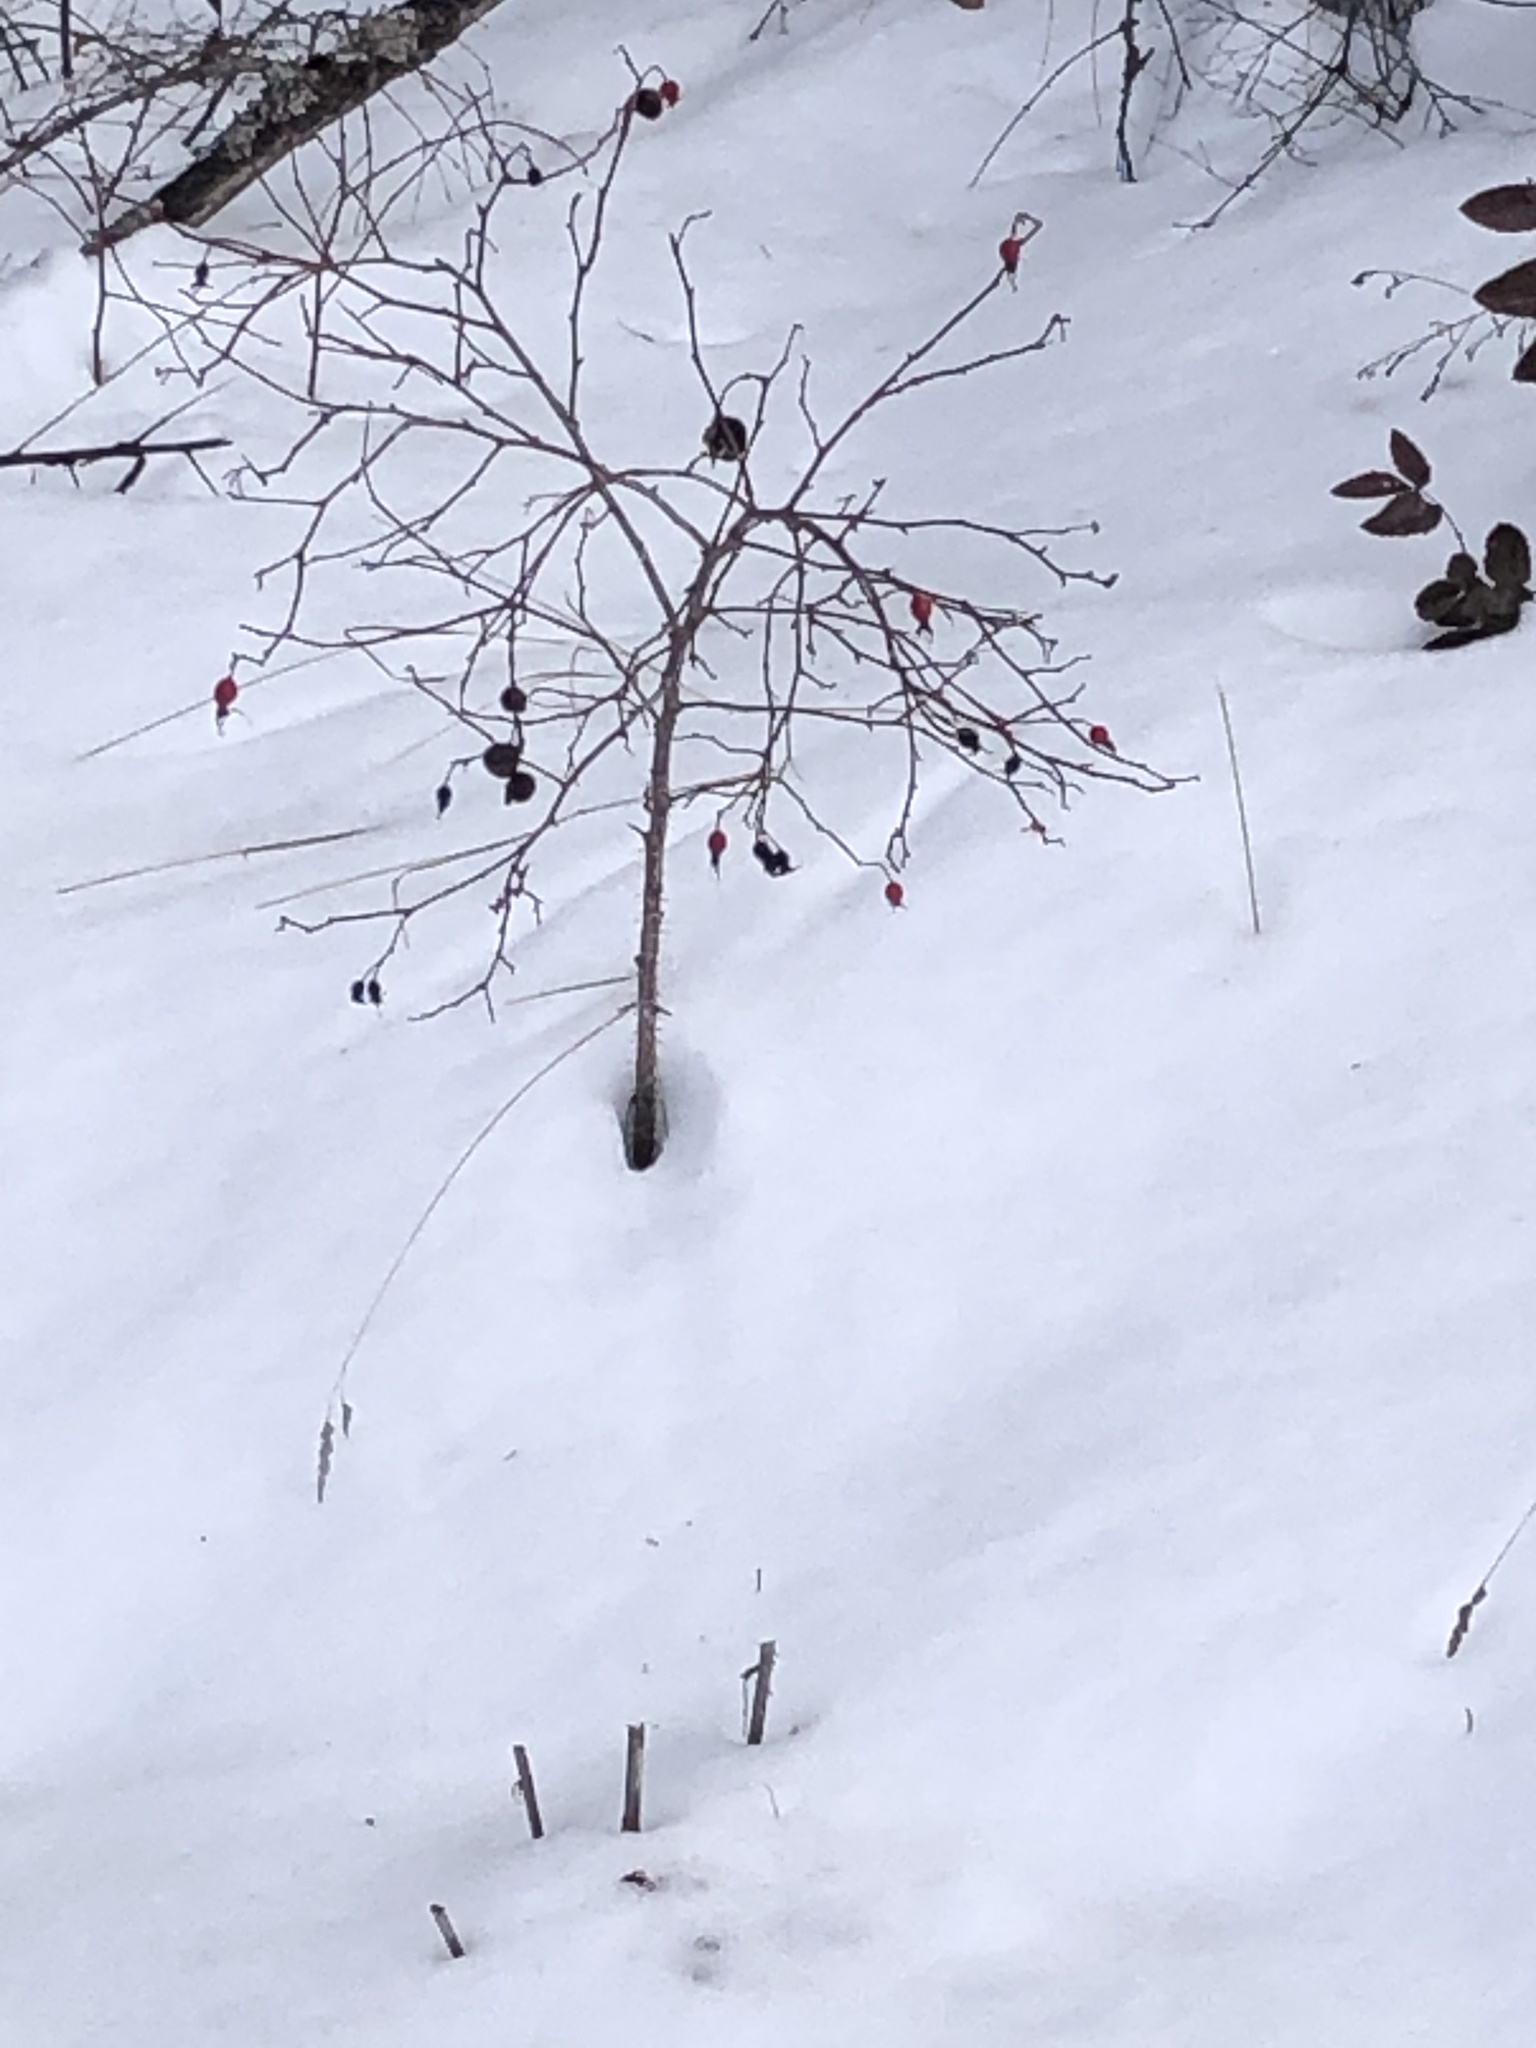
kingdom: Animalia
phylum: Arthropoda
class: Insecta
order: Hymenoptera
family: Cynipidae
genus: Diplolepis
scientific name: Diplolepis variabilis
